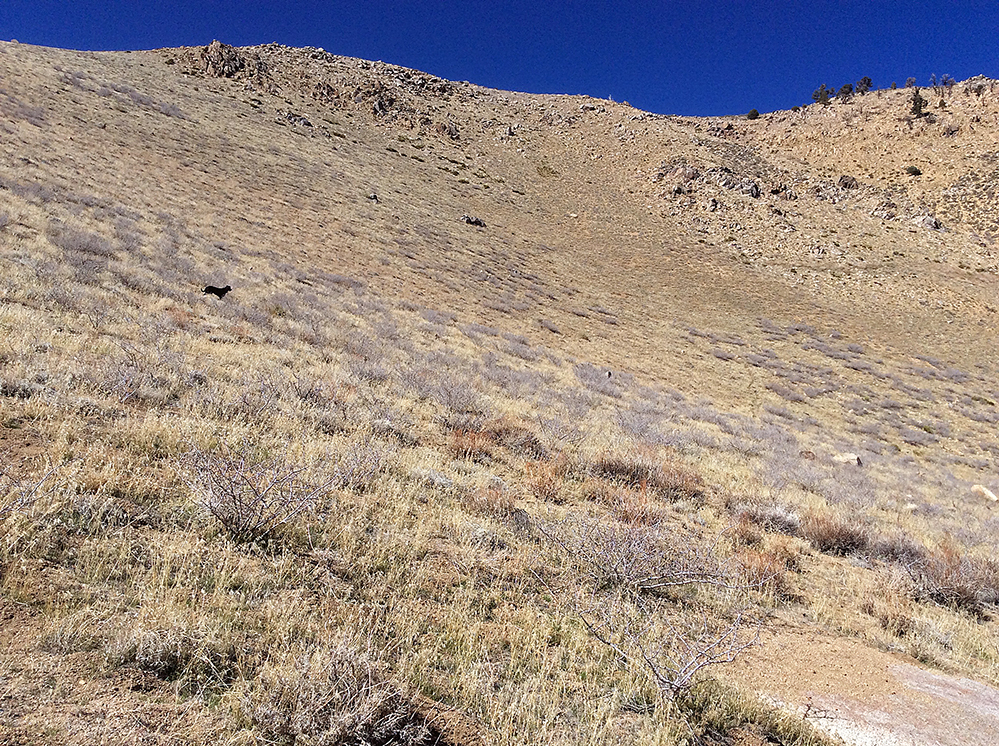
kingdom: Plantae
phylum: Tracheophyta
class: Magnoliopsida
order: Rosales
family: Rosaceae
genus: Prunus
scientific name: Prunus andersonii
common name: Desert peach
